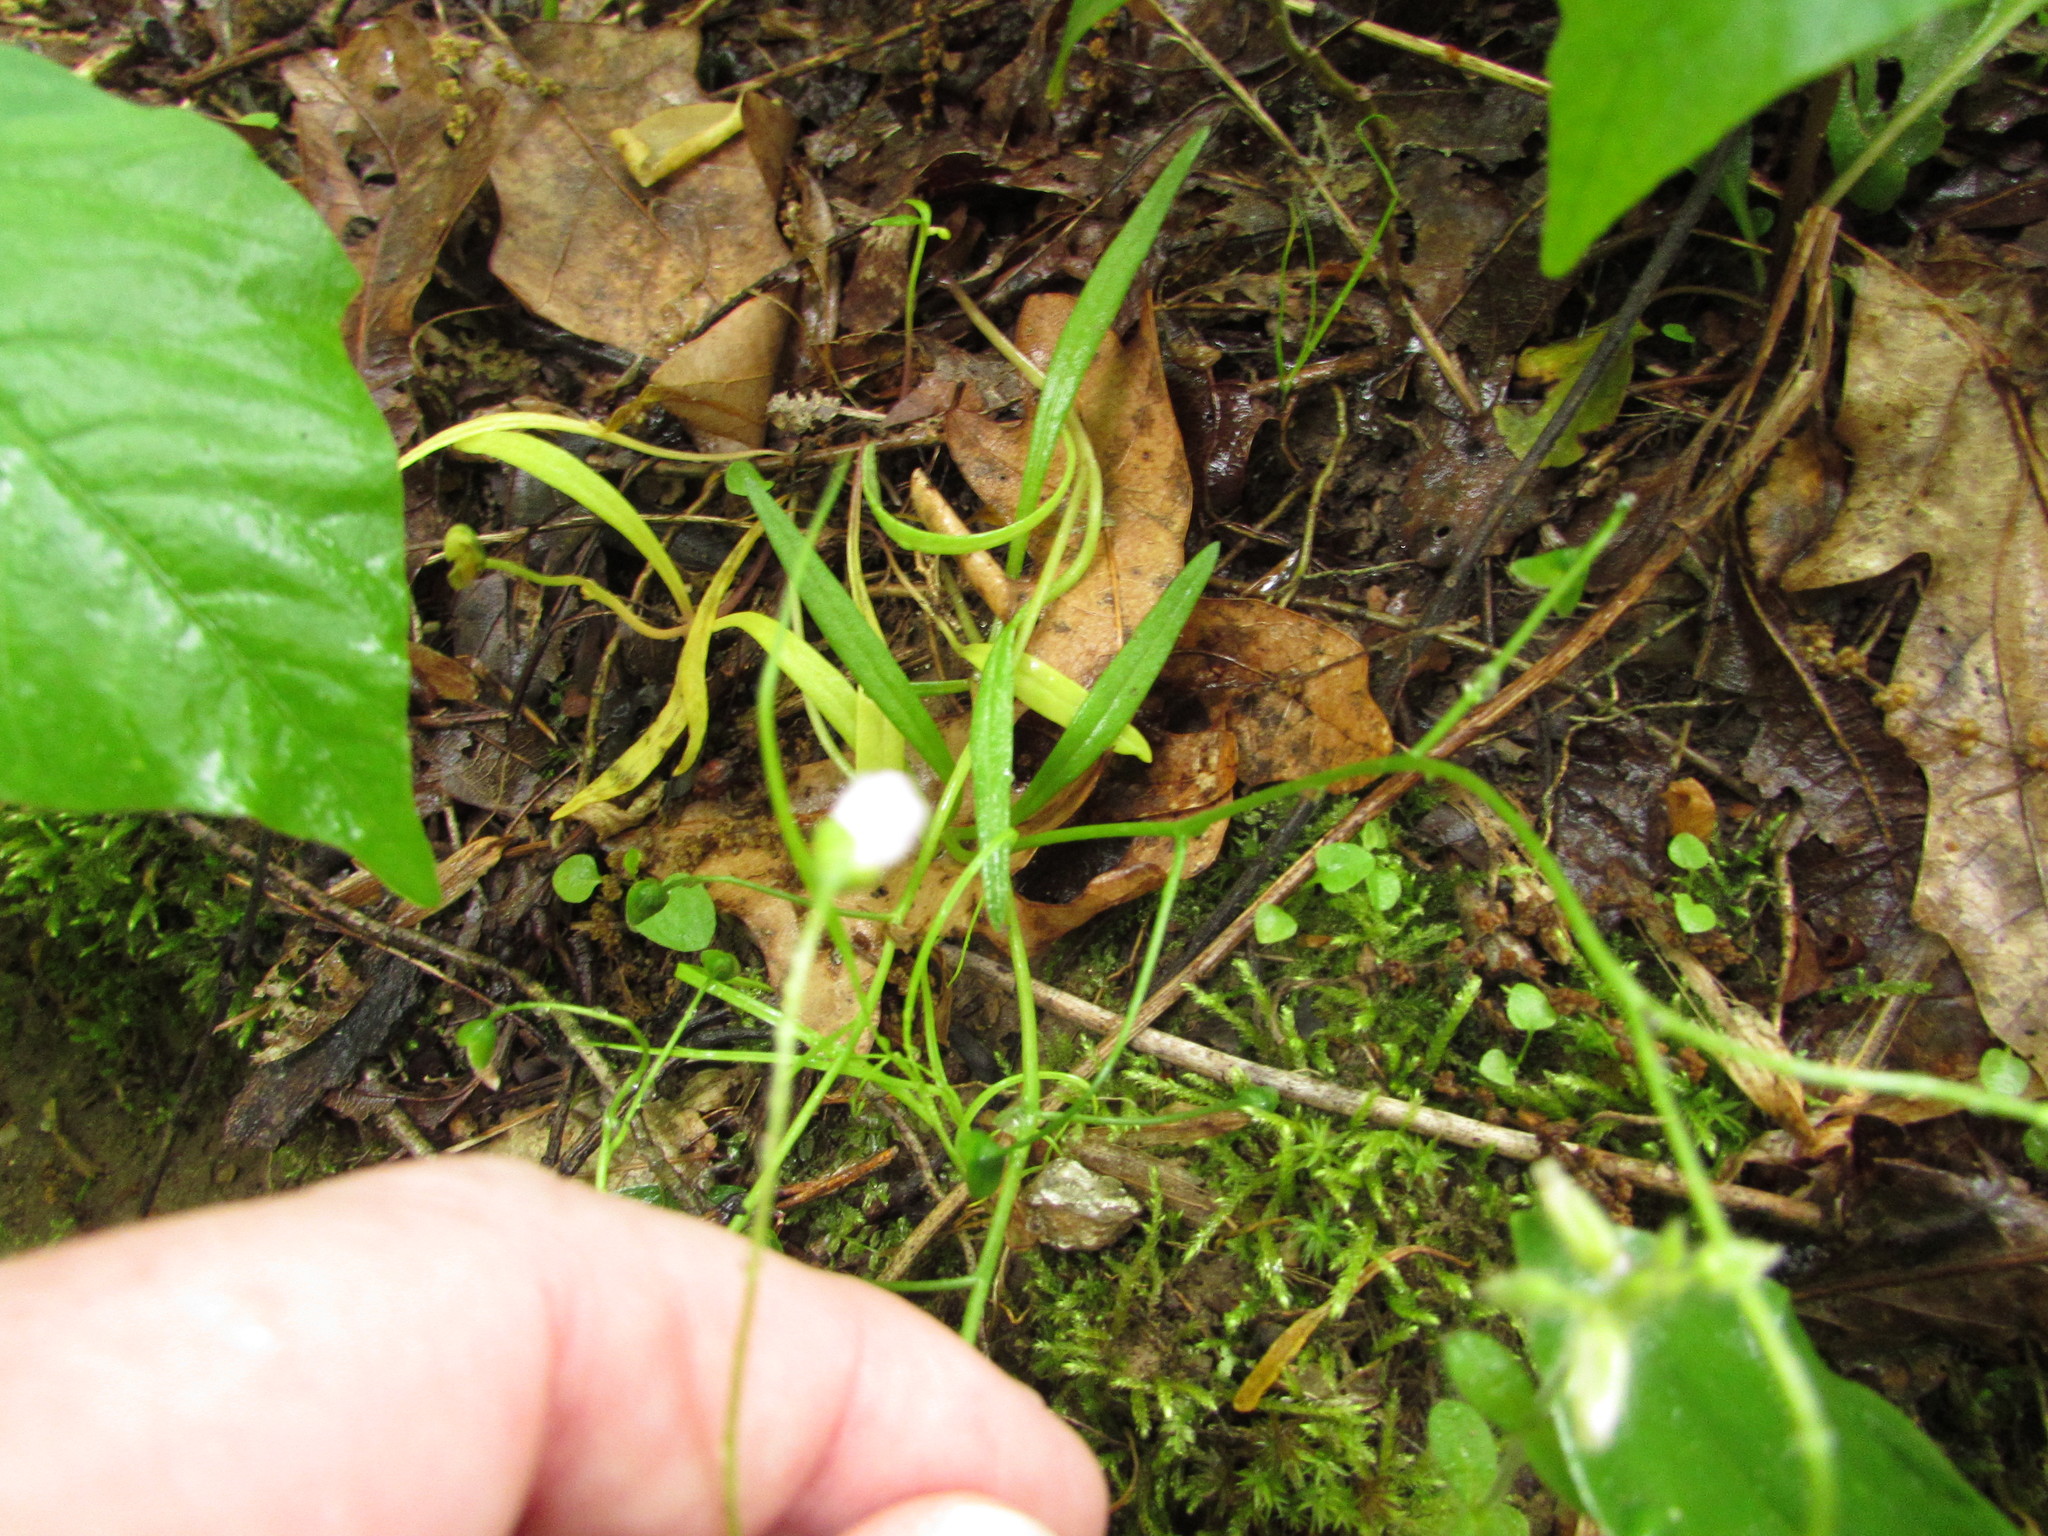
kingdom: Plantae
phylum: Tracheophyta
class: Magnoliopsida
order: Caryophyllales
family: Montiaceae
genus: Claytonia
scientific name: Claytonia virginica
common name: Virginia springbeauty
